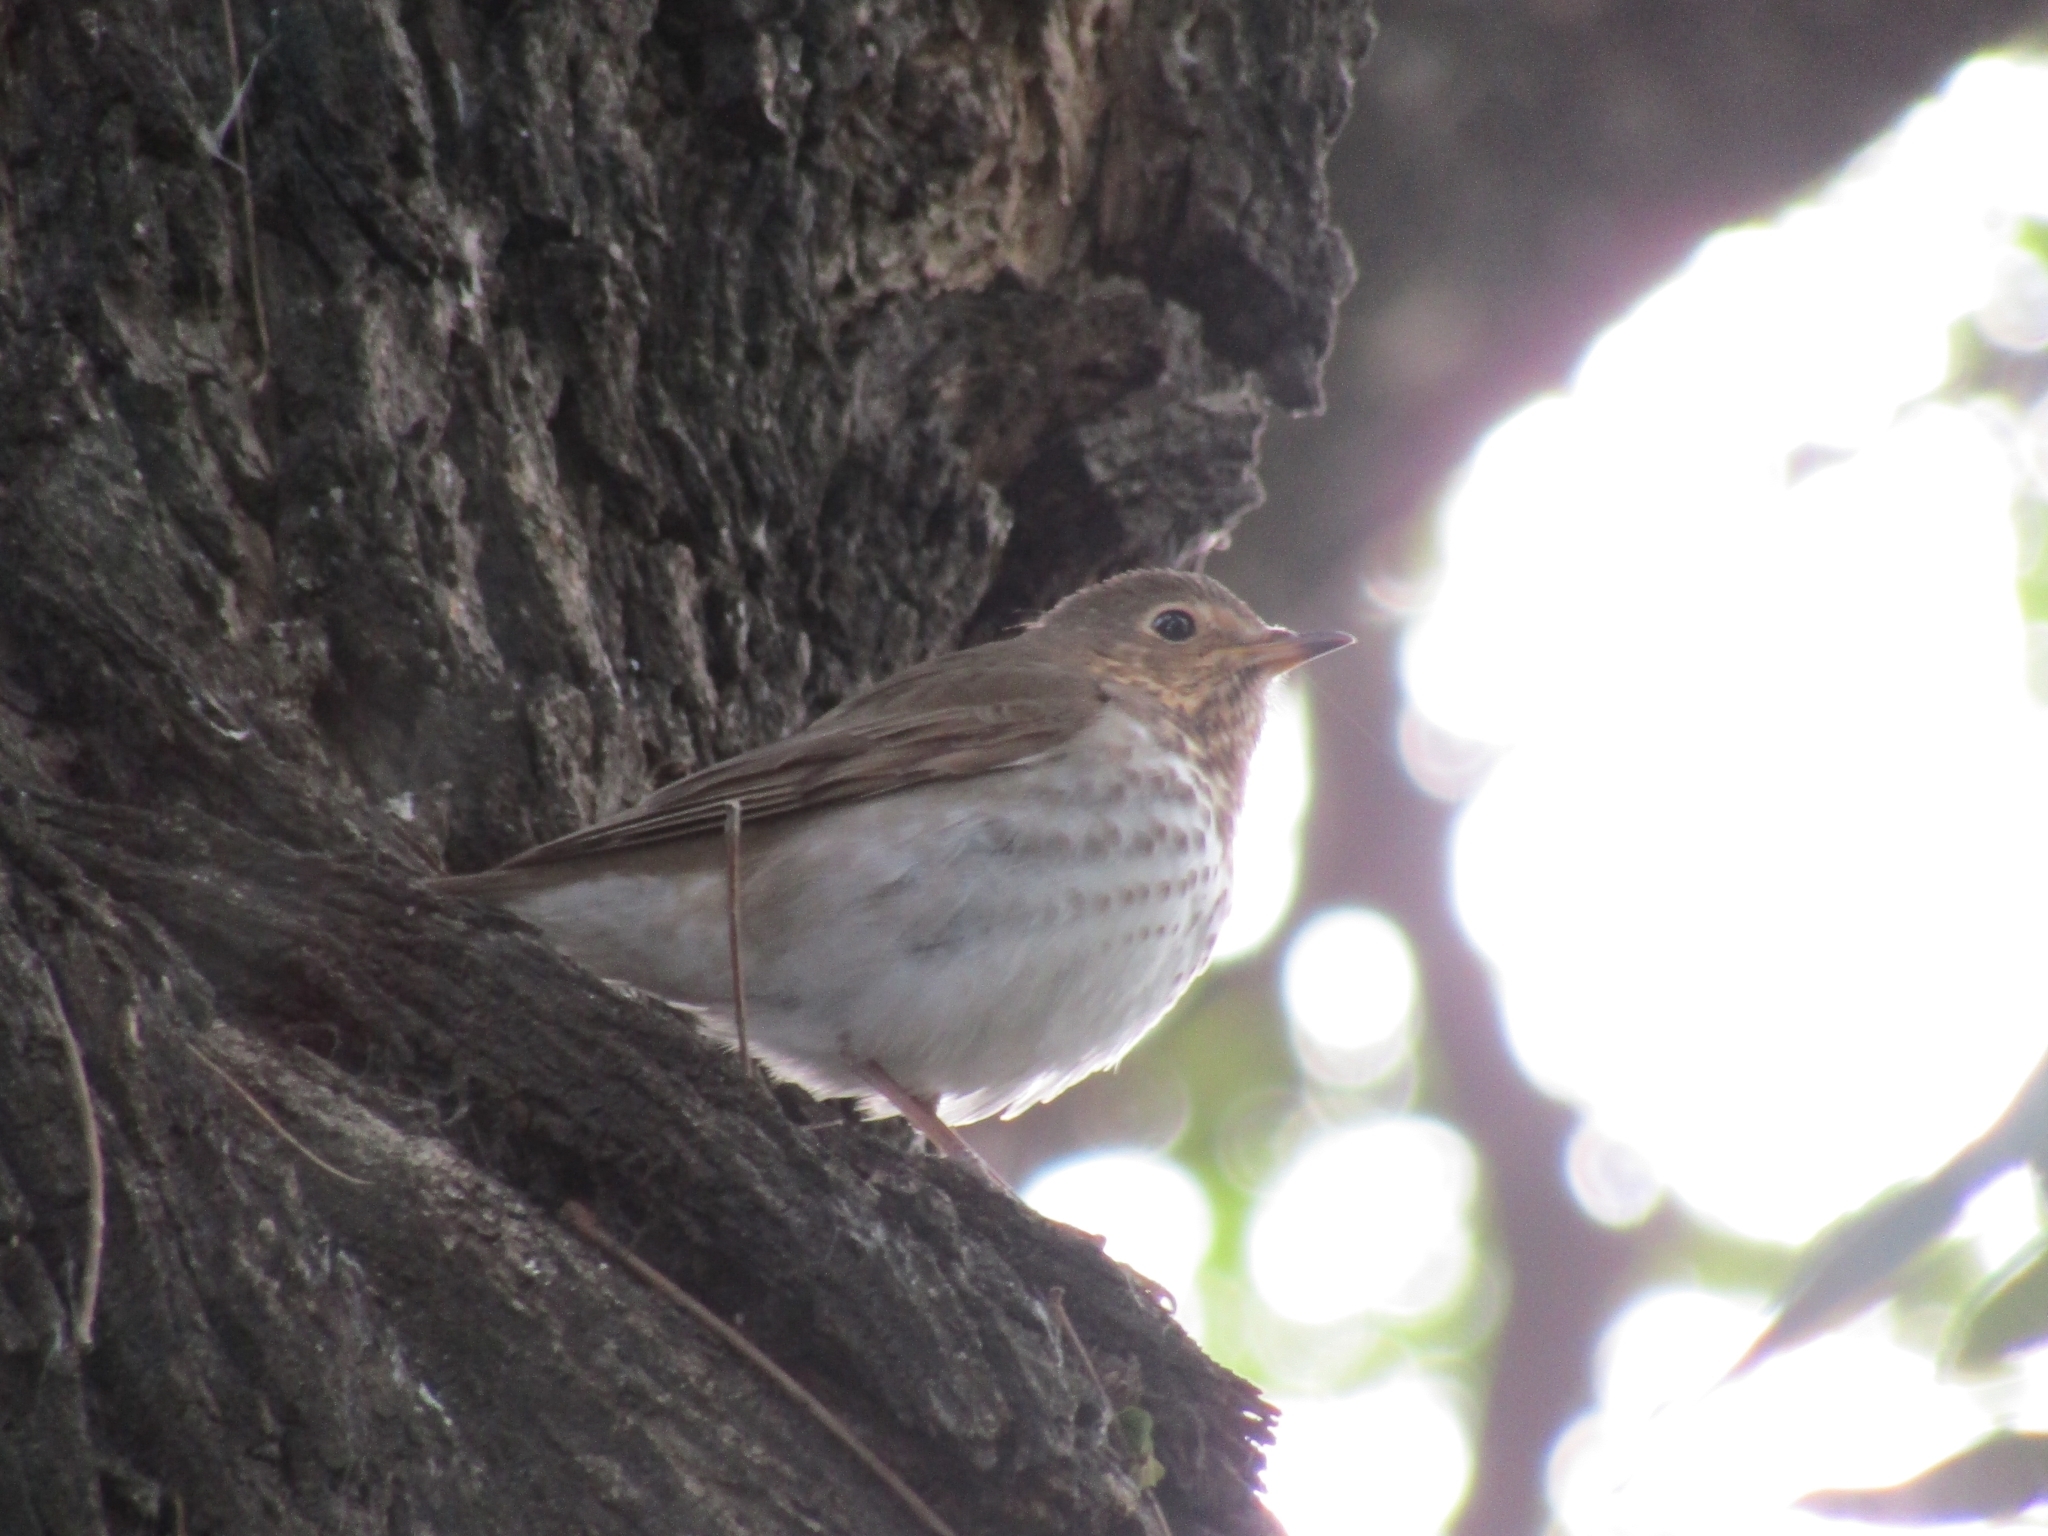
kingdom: Animalia
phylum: Chordata
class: Aves
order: Passeriformes
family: Turdidae
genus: Catharus
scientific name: Catharus ustulatus
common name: Swainson's thrush
